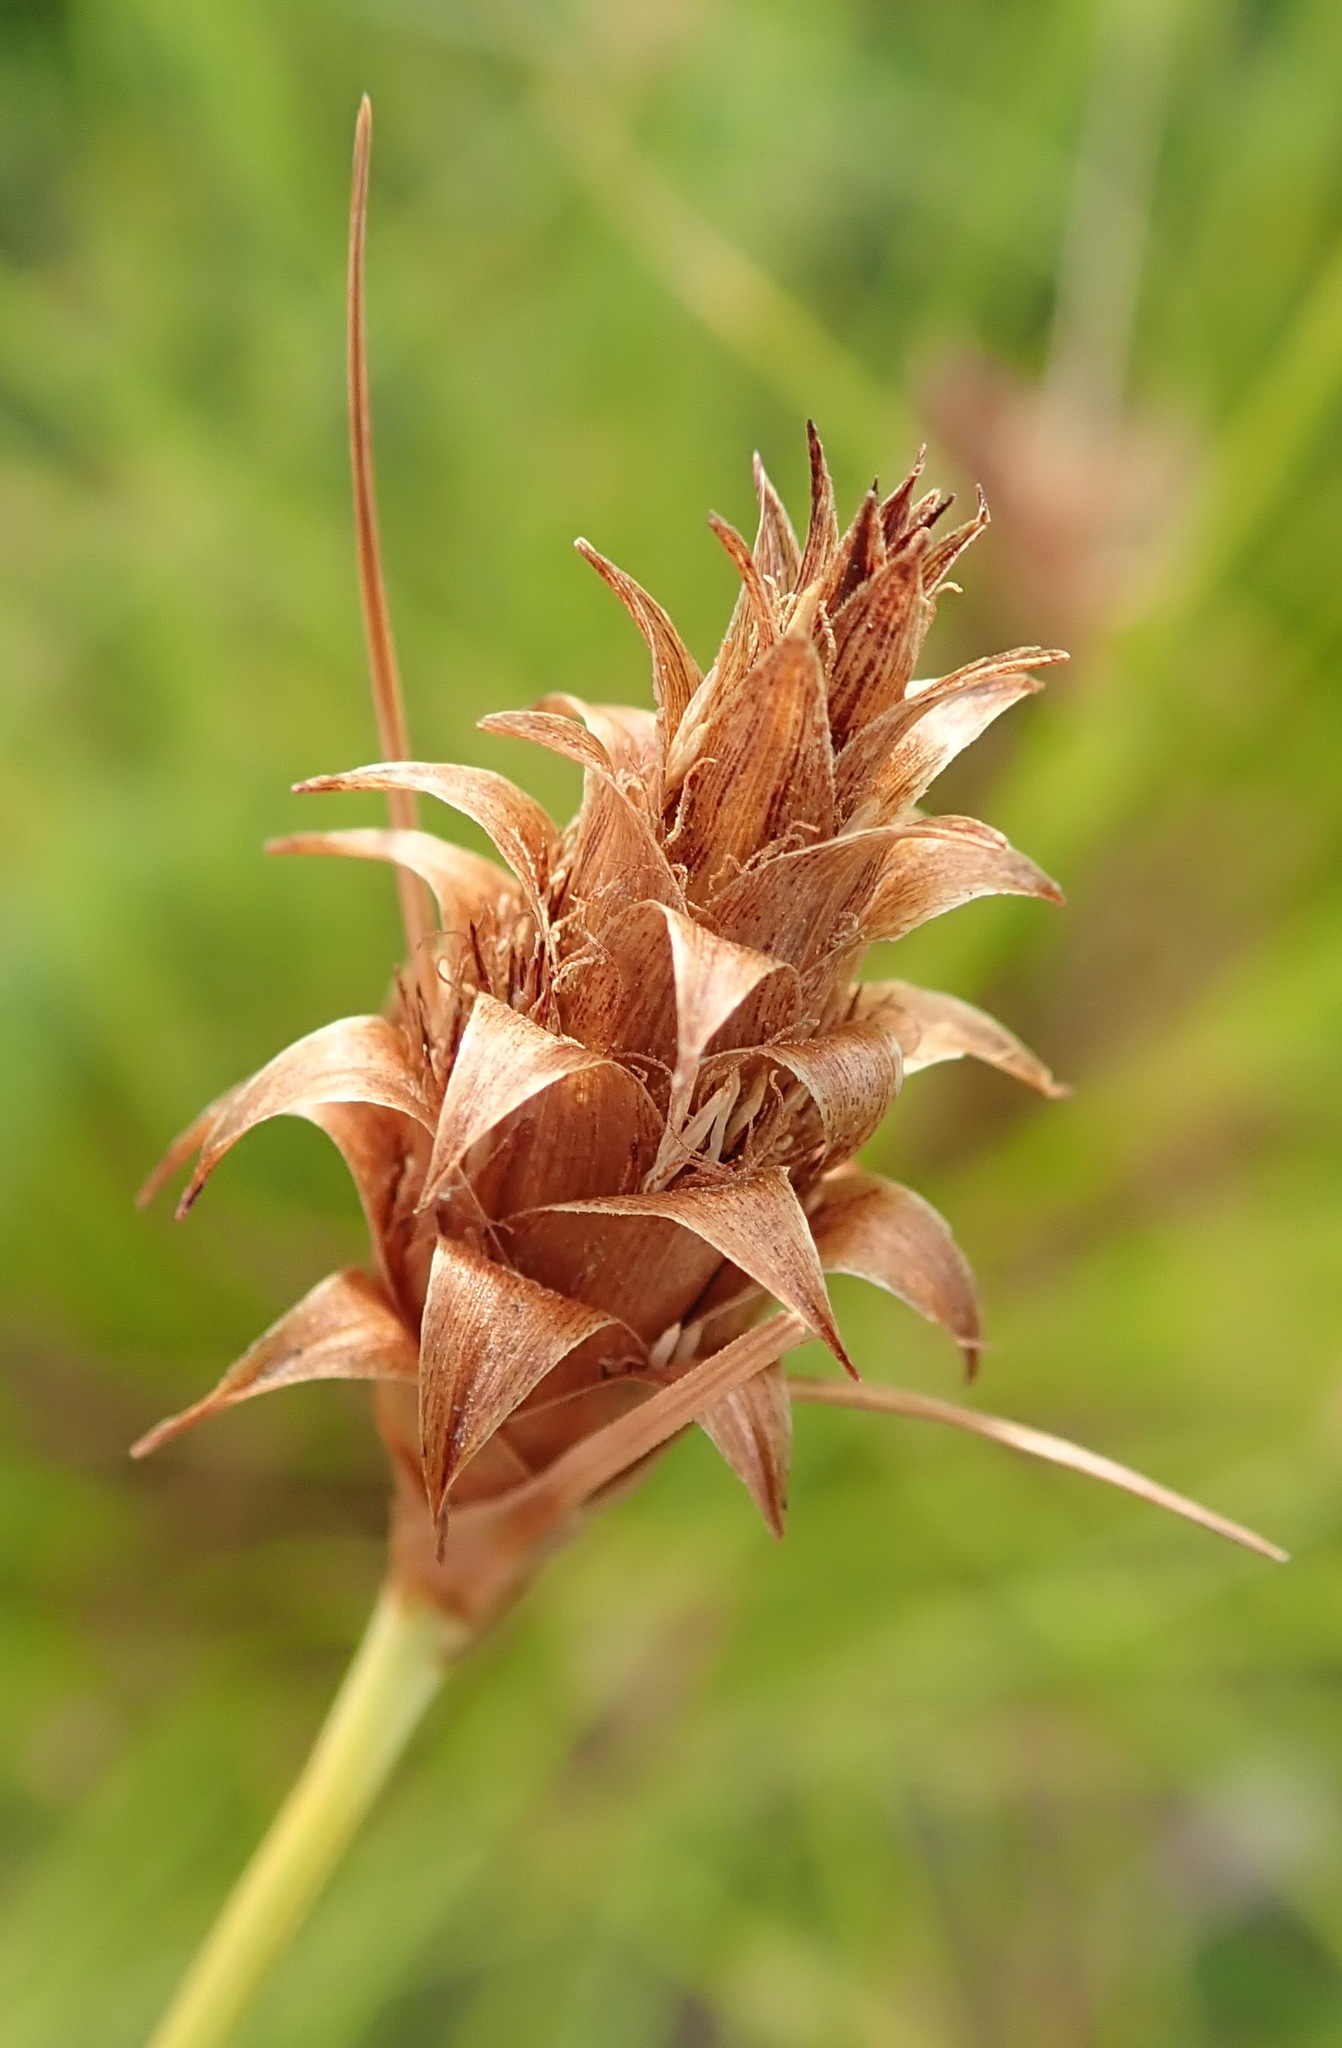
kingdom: Plantae
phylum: Tracheophyta
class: Liliopsida
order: Poales
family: Cyperaceae
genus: Ficinia
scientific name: Ficinia nigrescens
